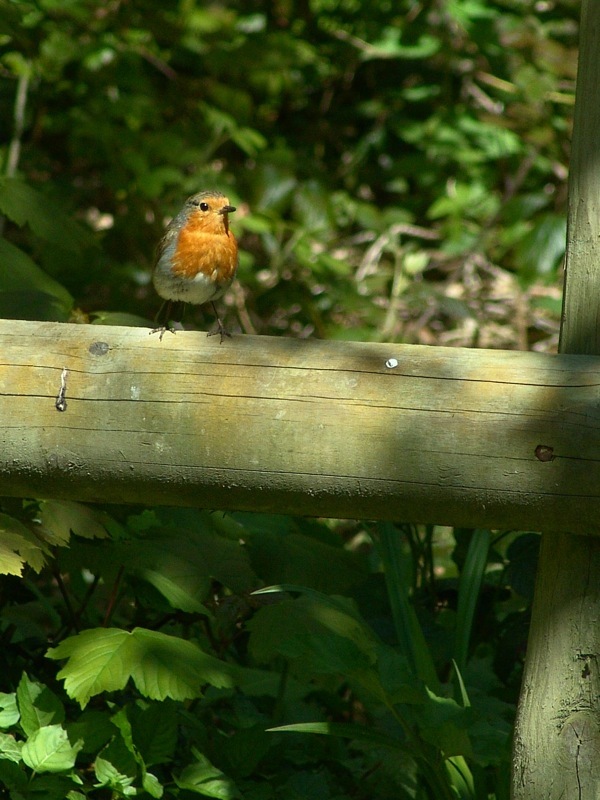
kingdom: Animalia
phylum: Chordata
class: Aves
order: Passeriformes
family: Muscicapidae
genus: Erithacus
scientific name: Erithacus rubecula
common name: European robin
